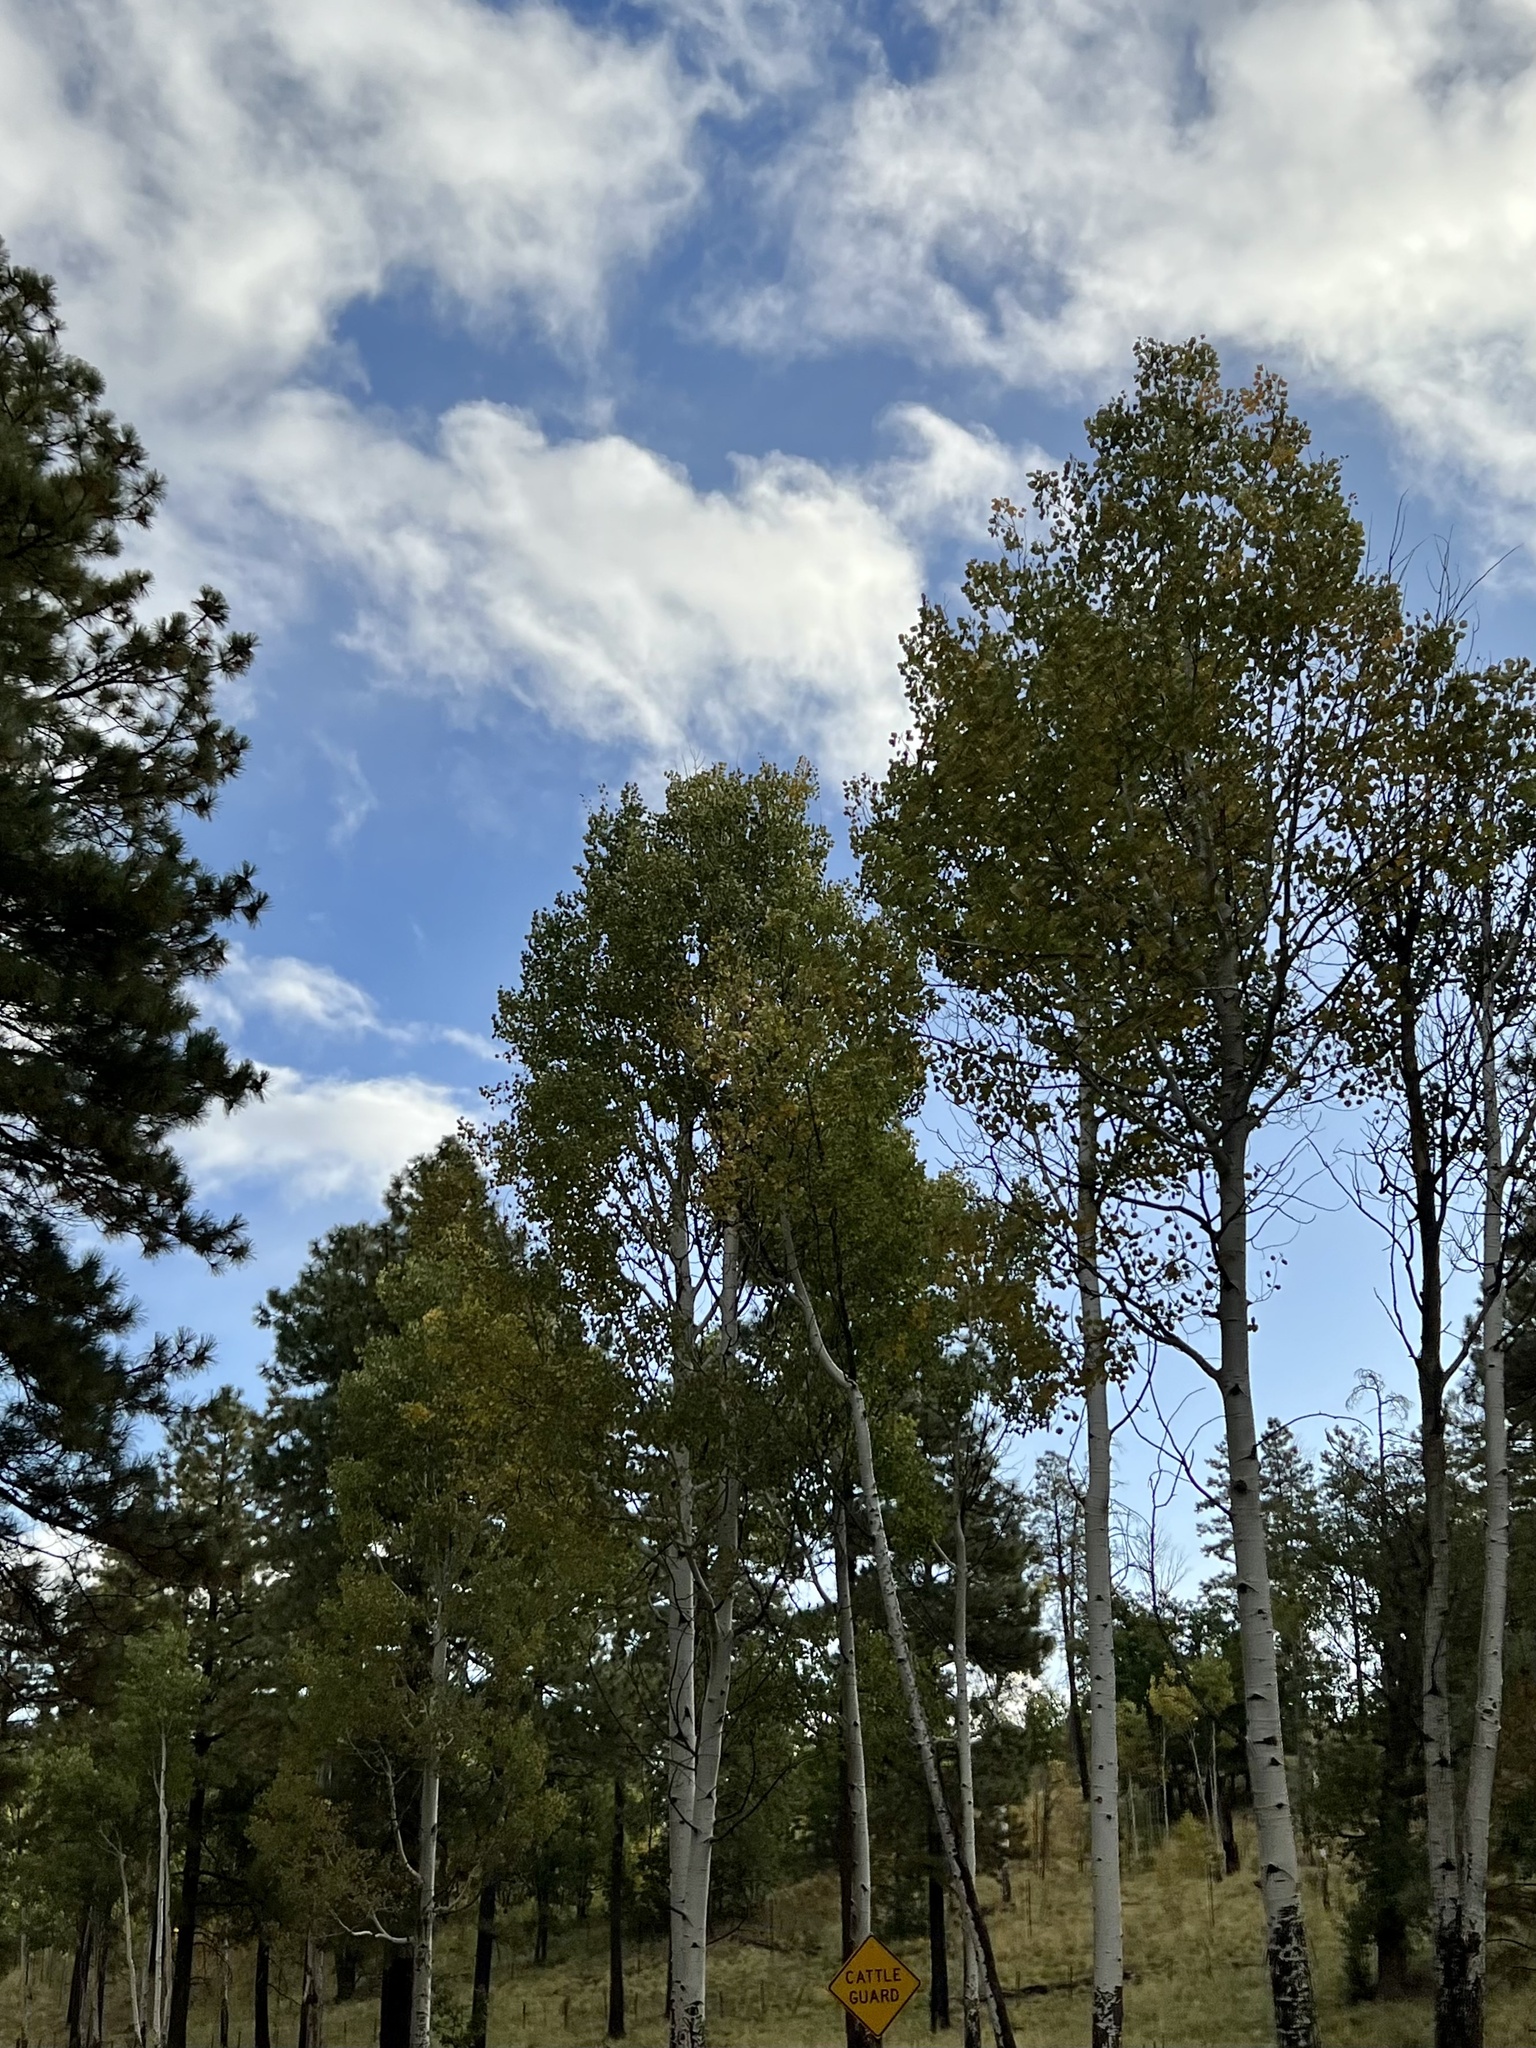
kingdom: Plantae
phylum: Tracheophyta
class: Magnoliopsida
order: Malpighiales
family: Salicaceae
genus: Populus
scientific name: Populus tremuloides
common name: Quaking aspen
